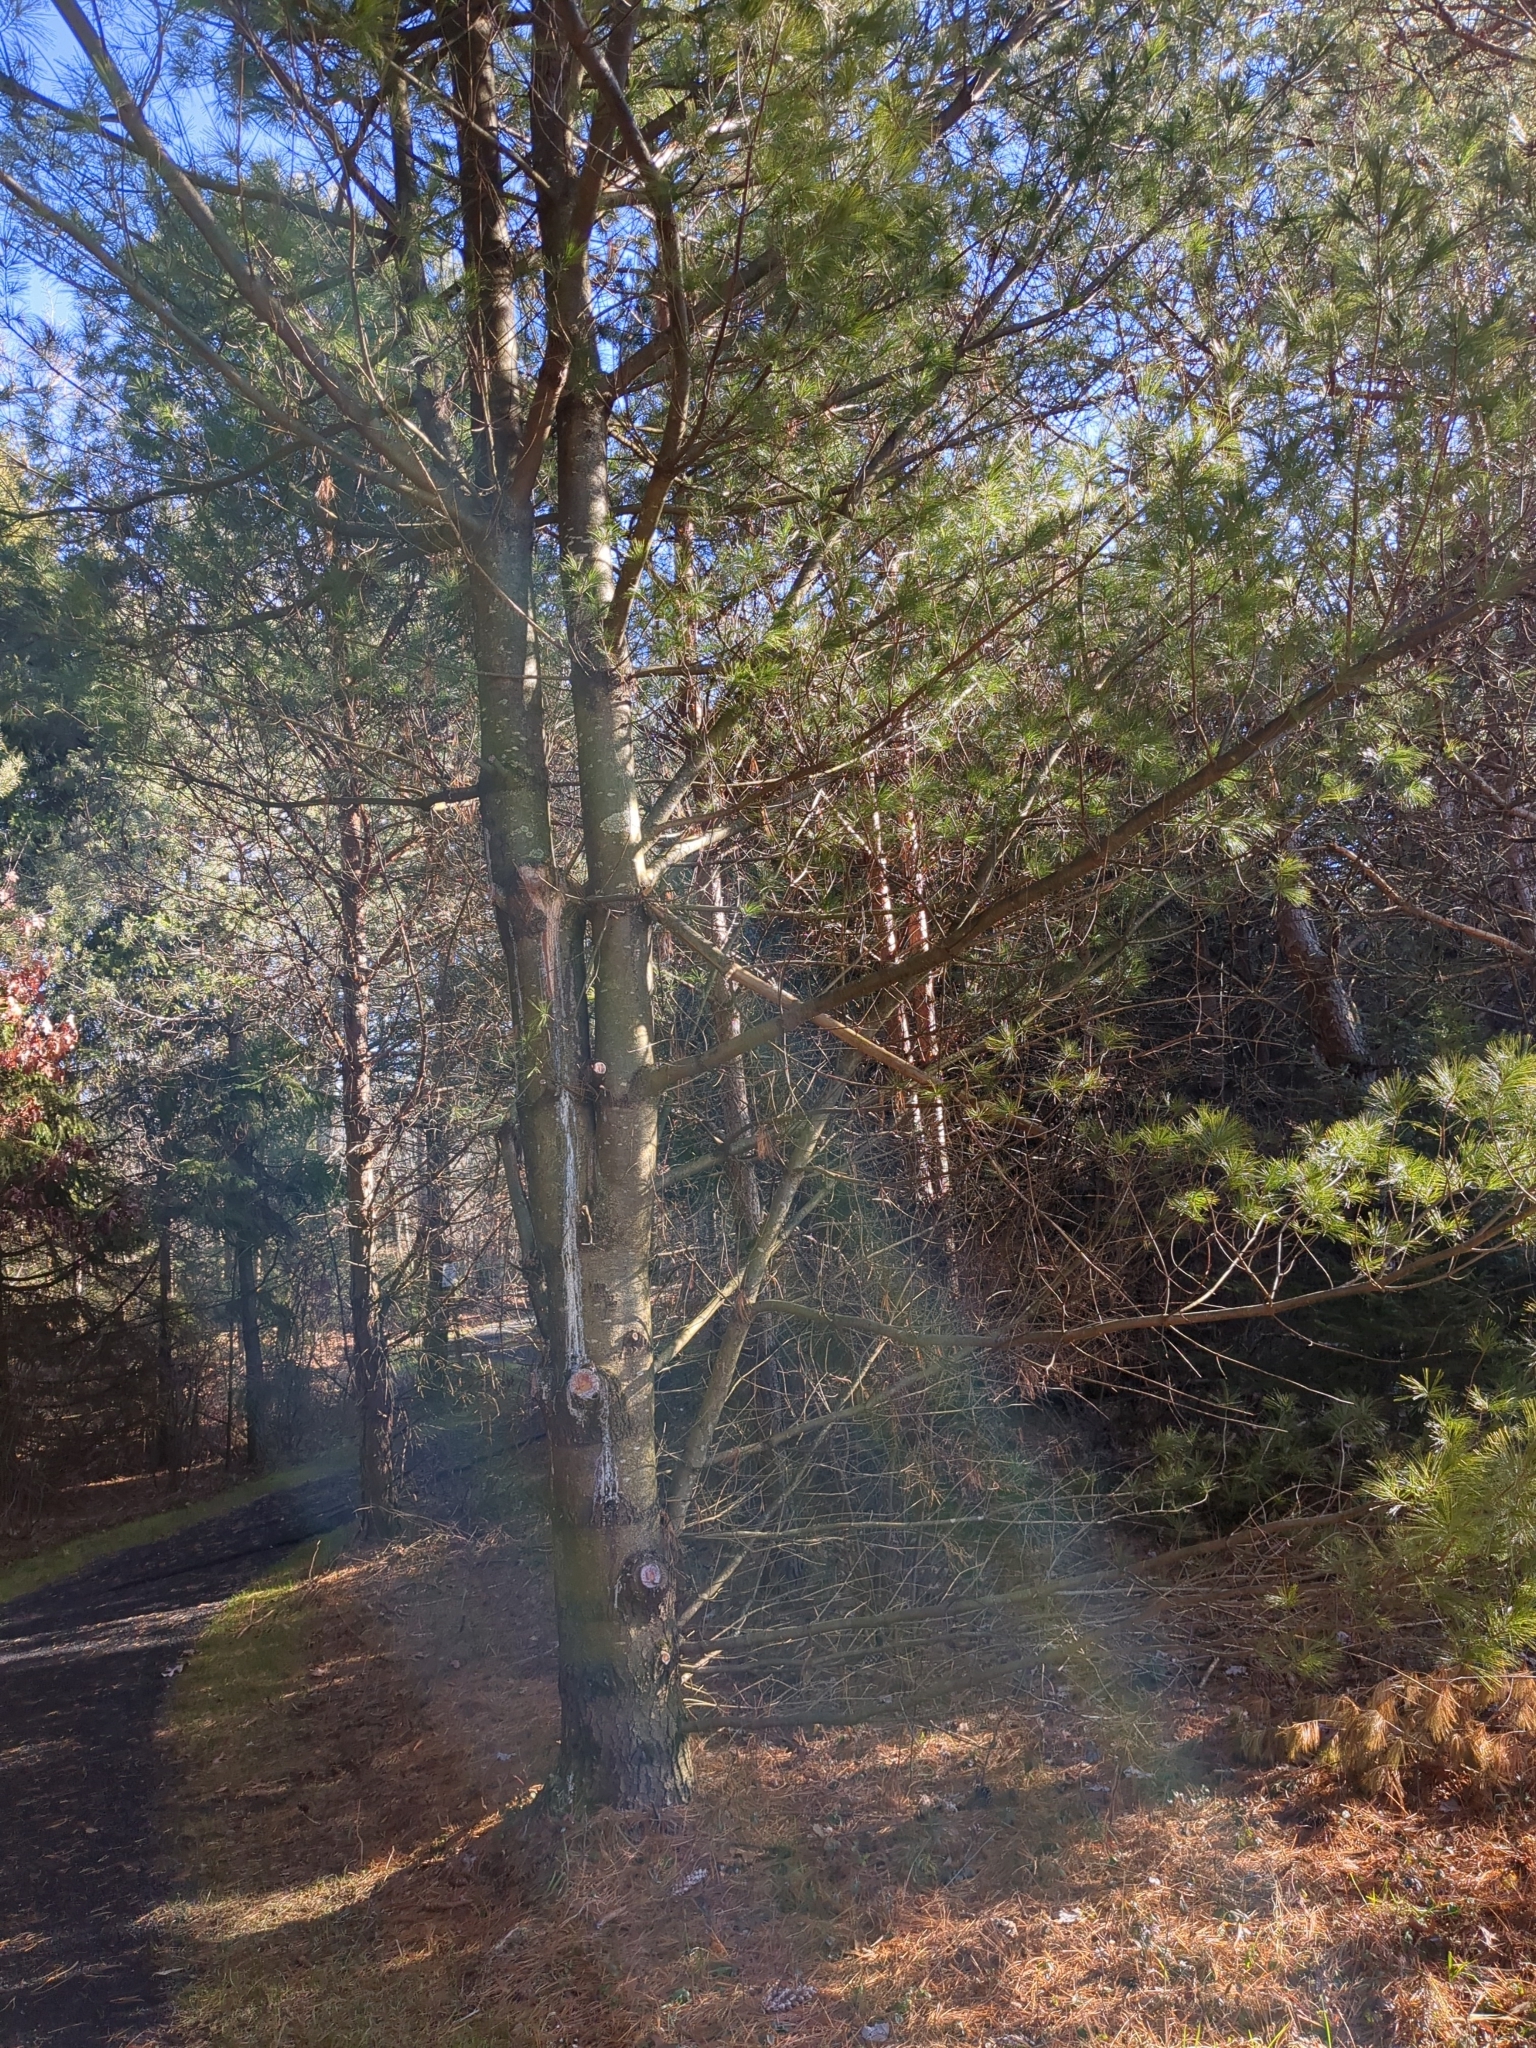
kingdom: Plantae
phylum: Tracheophyta
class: Pinopsida
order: Pinales
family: Pinaceae
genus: Pinus
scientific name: Pinus strobus
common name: Weymouth pine
